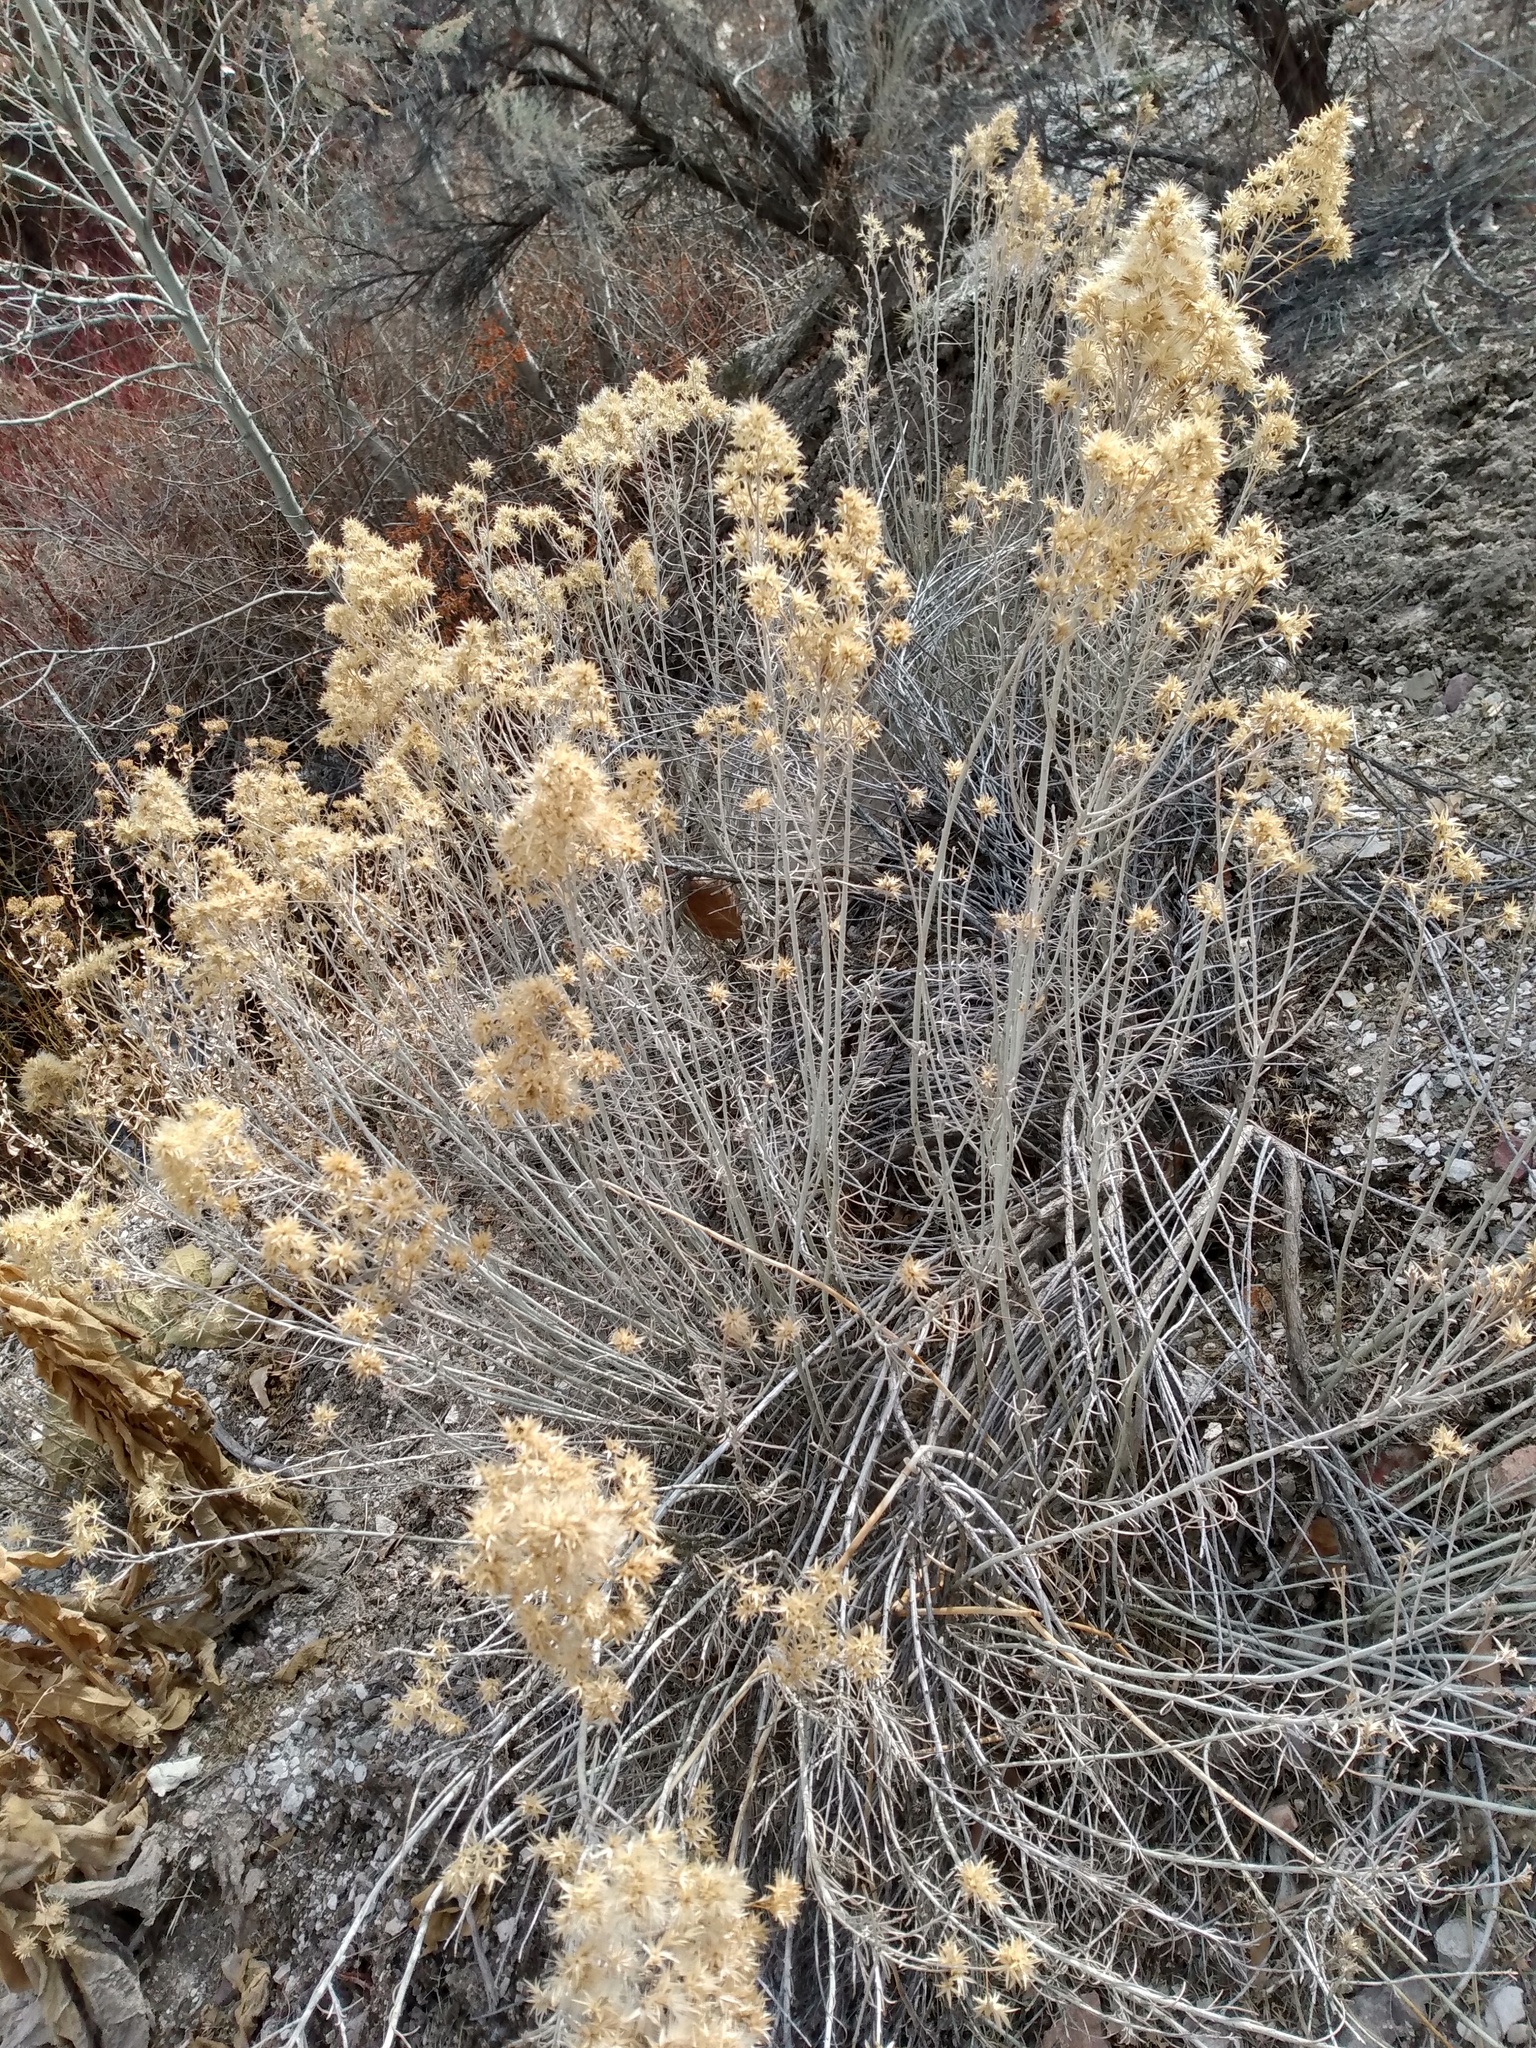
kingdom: Plantae
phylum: Tracheophyta
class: Magnoliopsida
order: Asterales
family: Asteraceae
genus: Ericameria
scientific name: Ericameria nauseosa
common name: Rubber rabbitbrush
